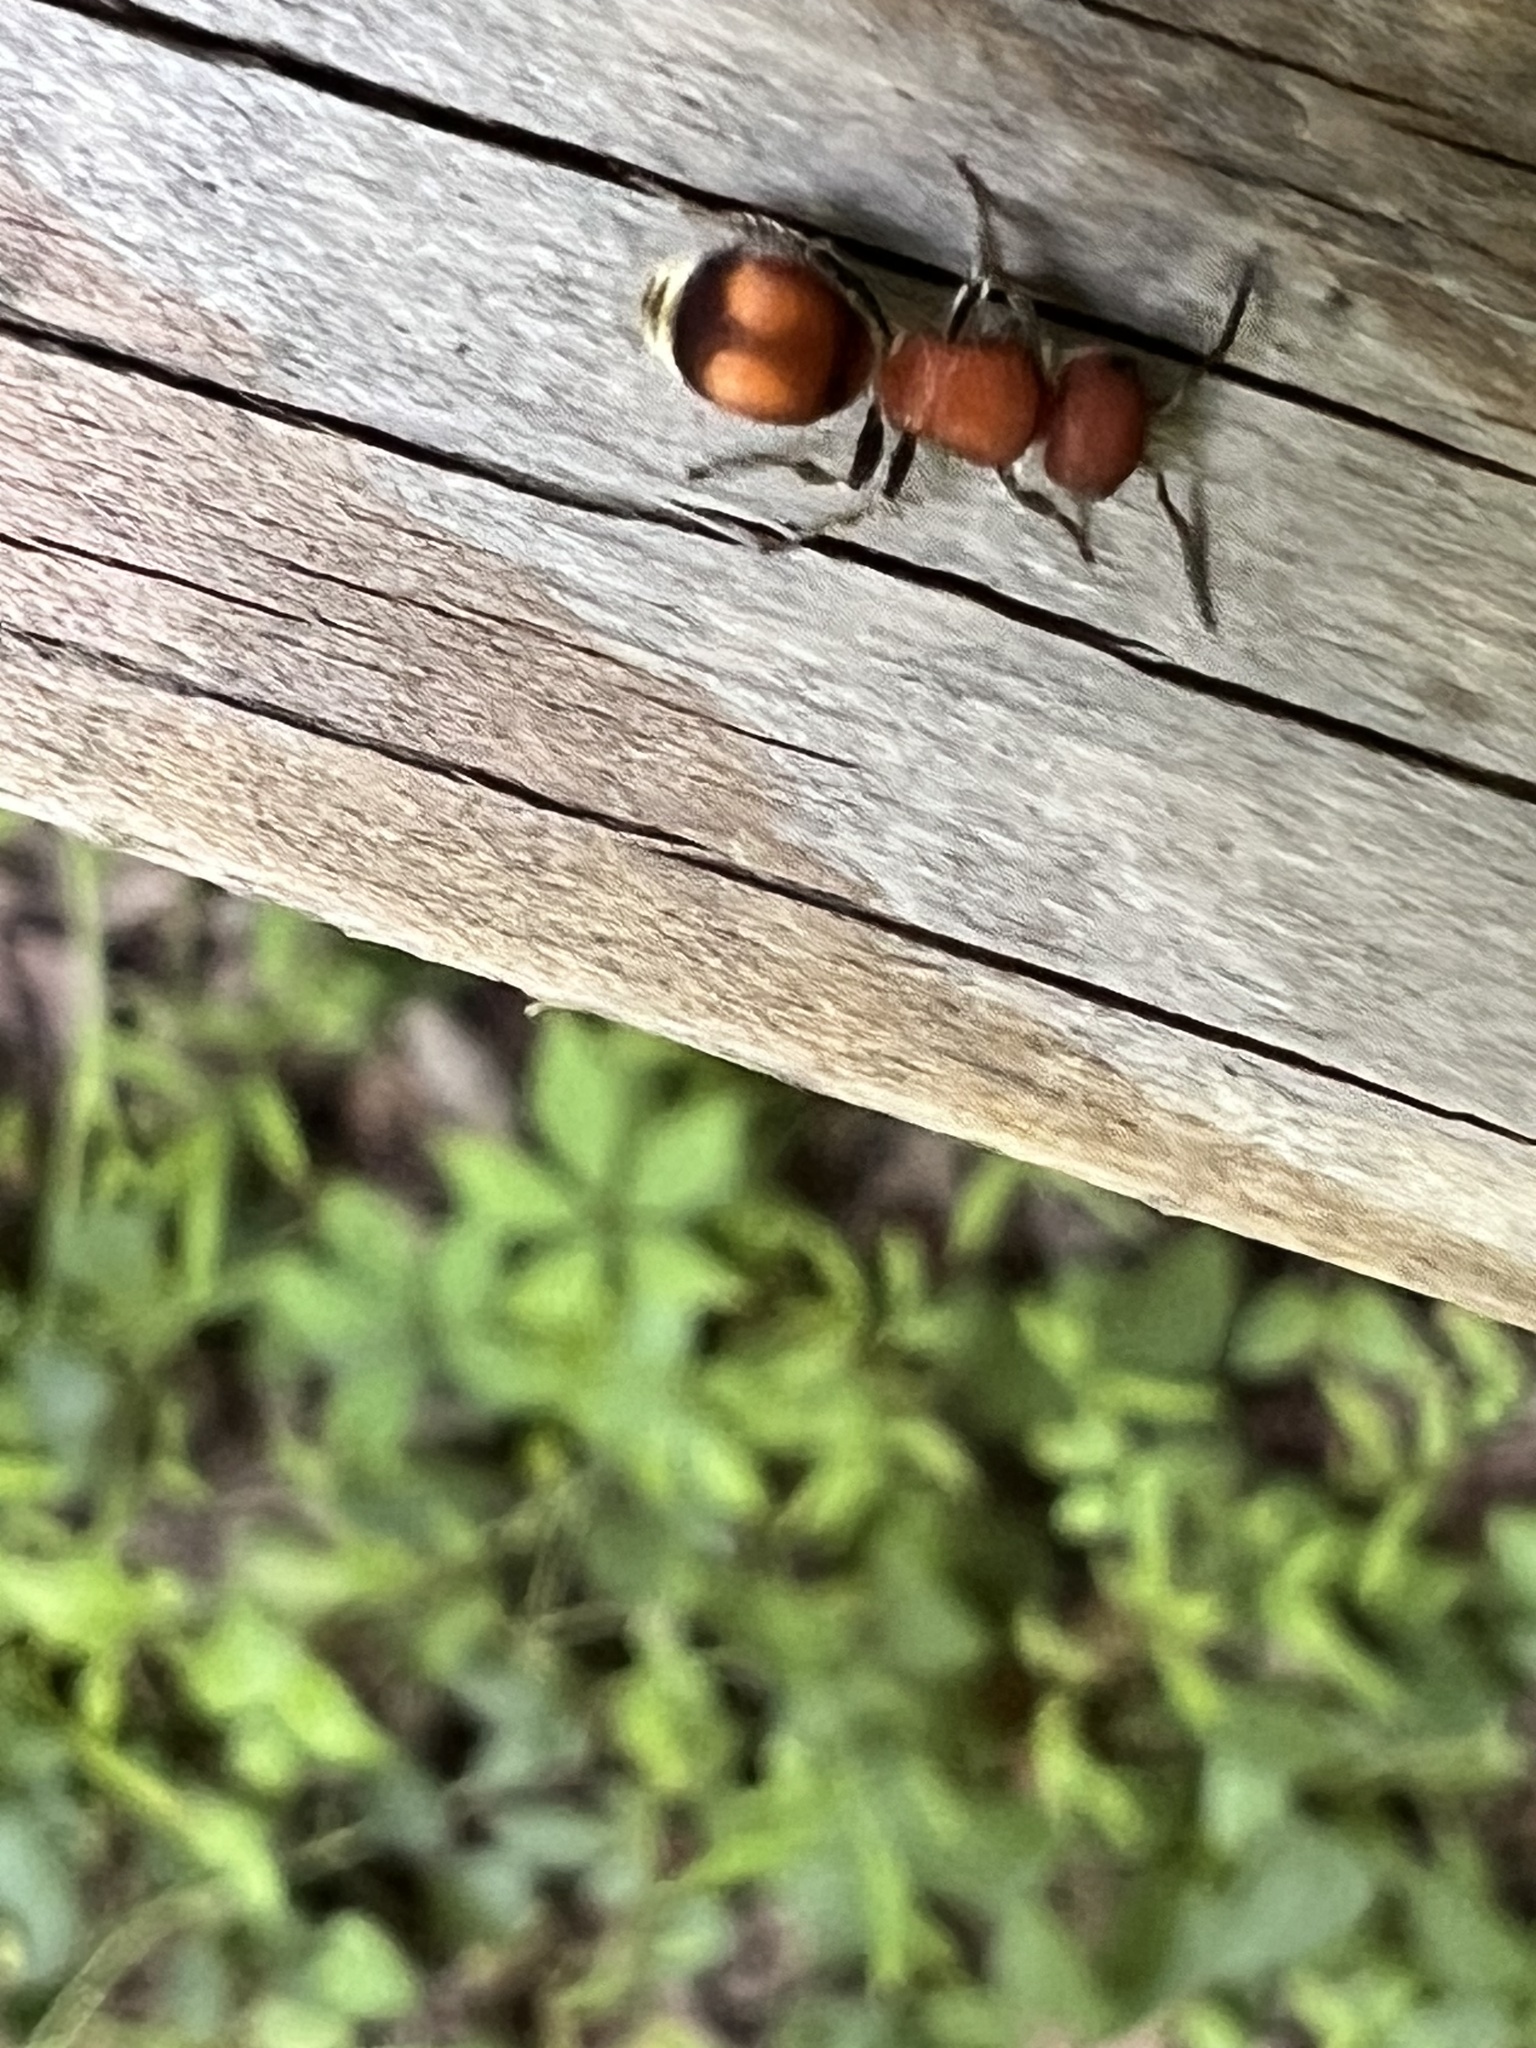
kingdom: Animalia
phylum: Arthropoda
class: Insecta
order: Hymenoptera
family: Mutillidae
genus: Pseudomethoca
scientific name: Pseudomethoca
